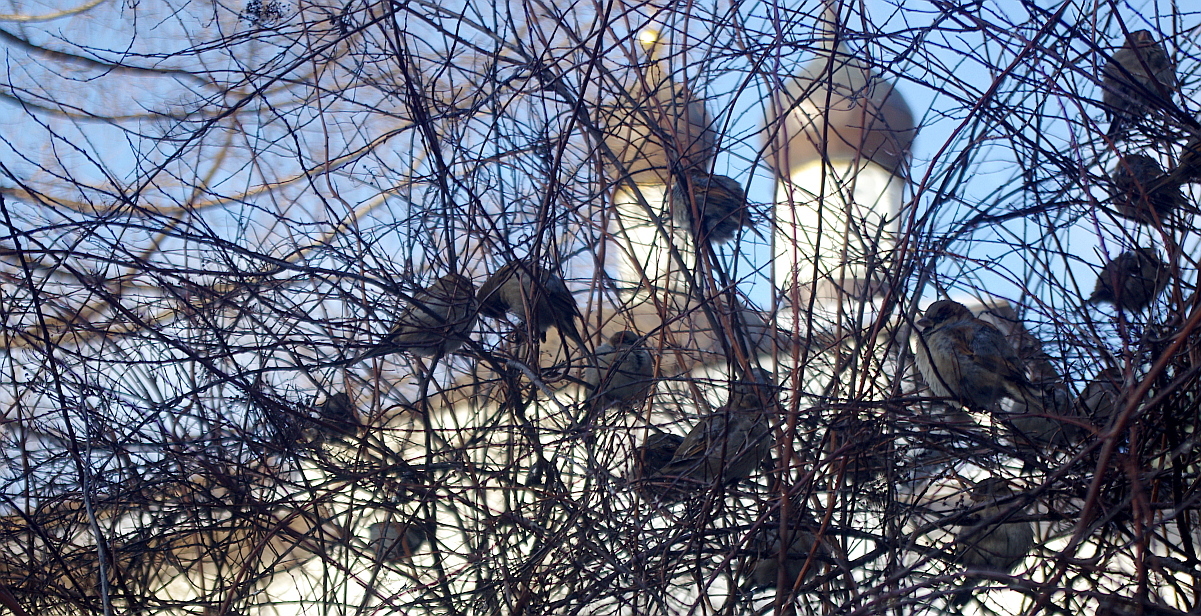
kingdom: Animalia
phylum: Chordata
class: Aves
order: Passeriformes
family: Passeridae
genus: Passer
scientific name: Passer domesticus
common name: House sparrow
